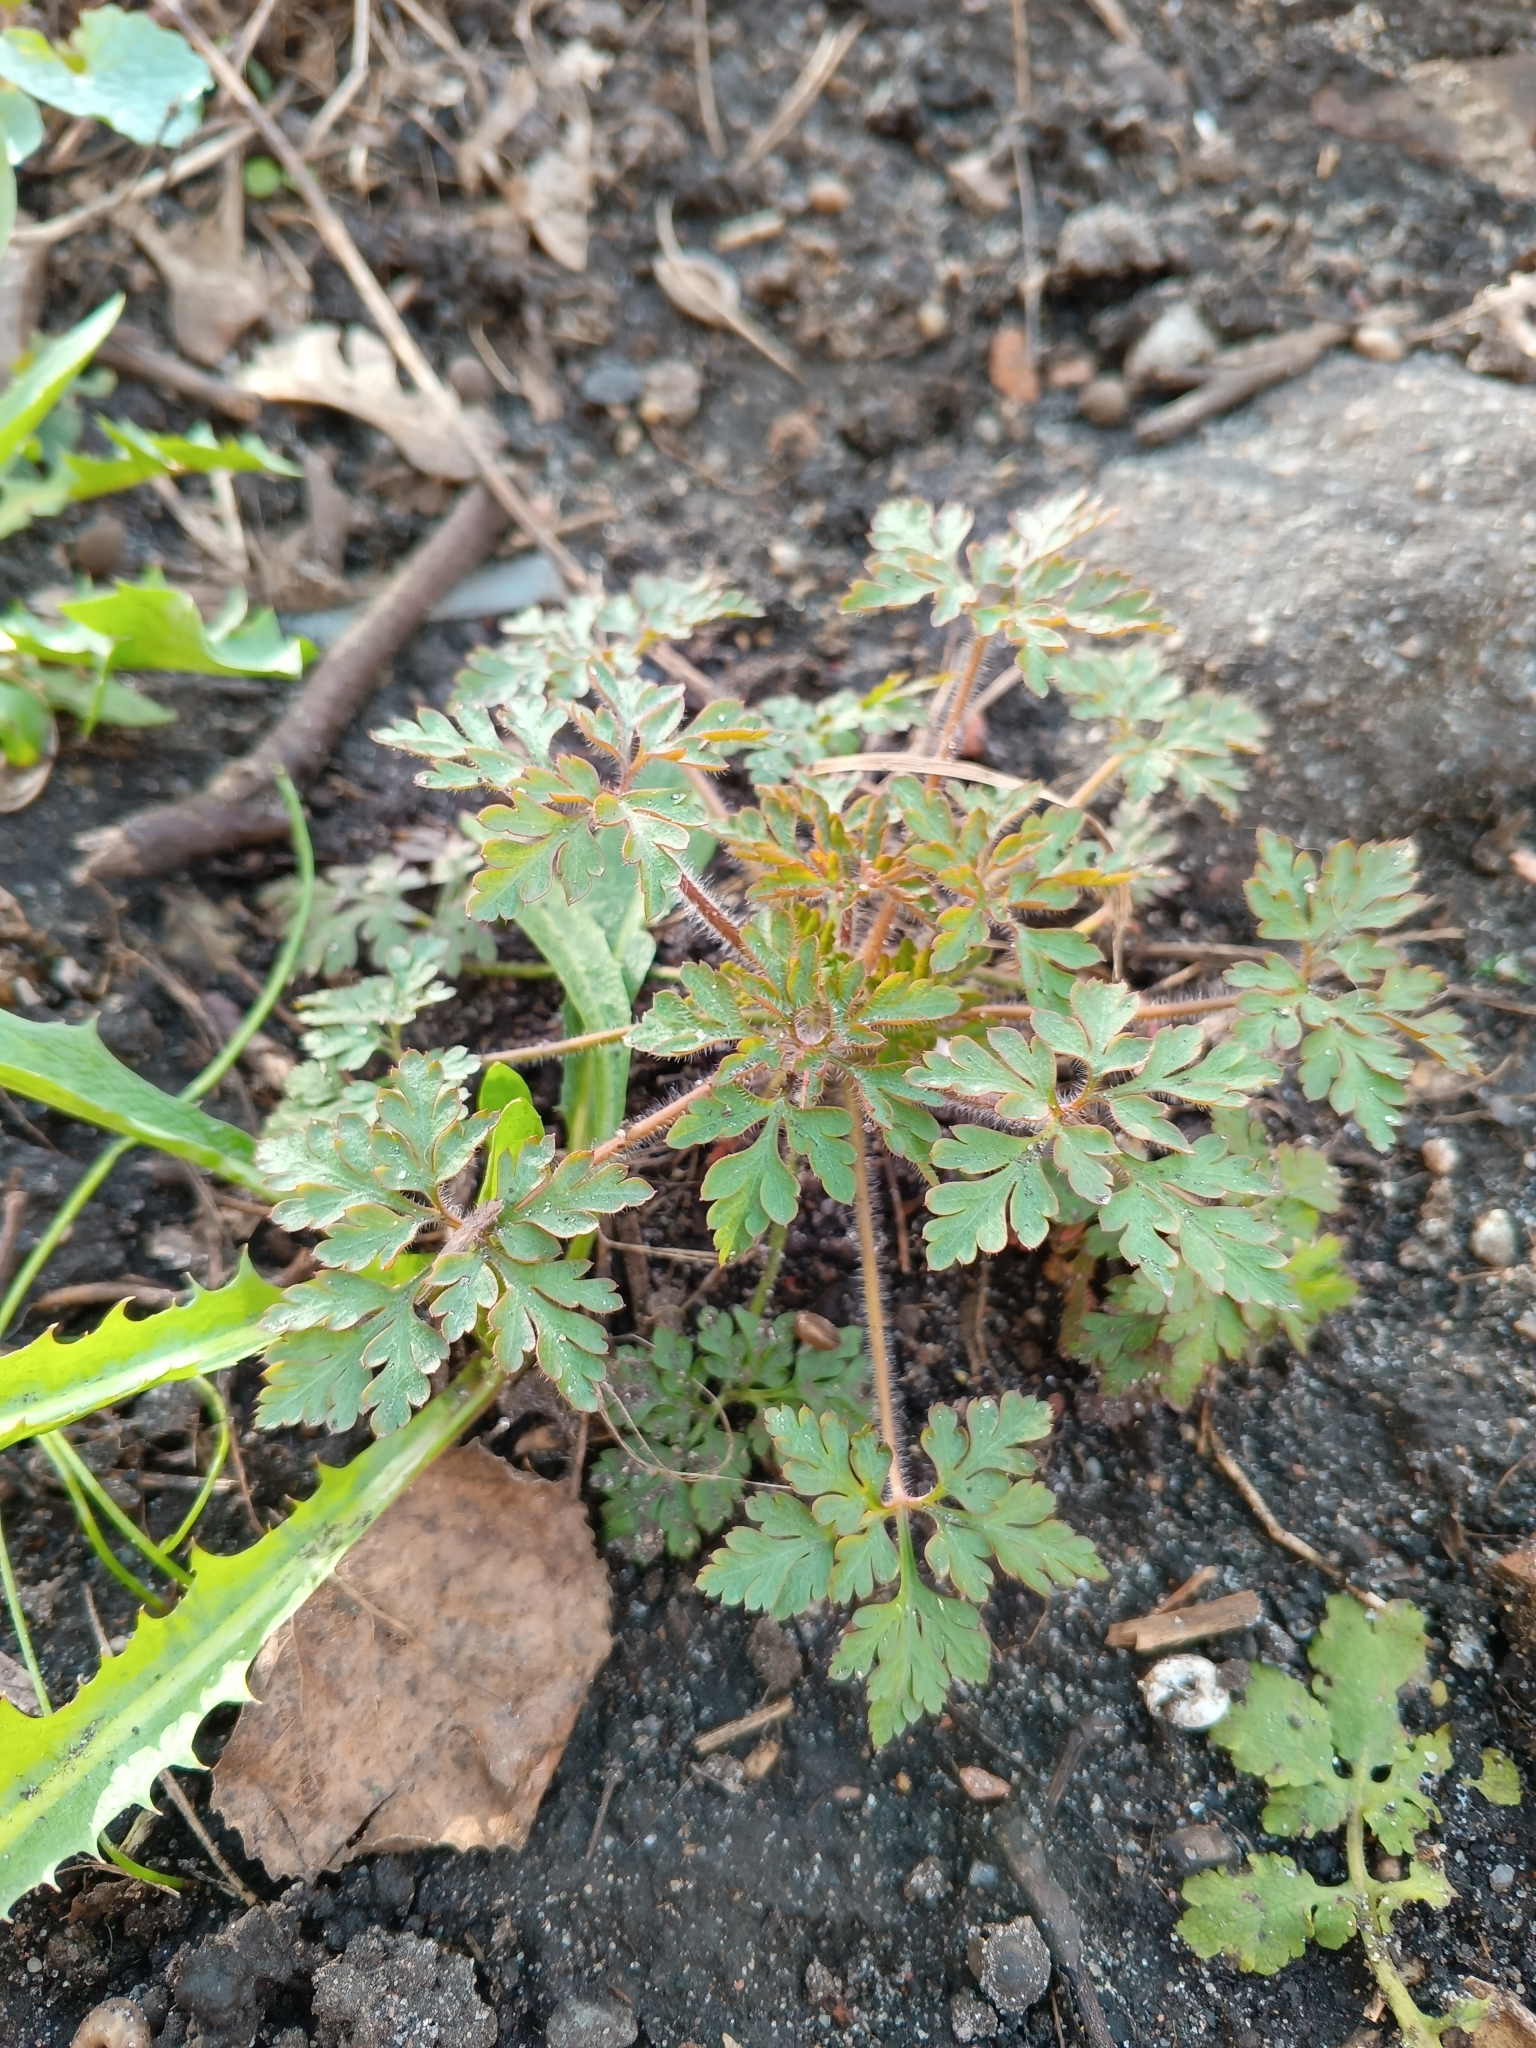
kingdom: Plantae
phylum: Tracheophyta
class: Magnoliopsida
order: Geraniales
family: Geraniaceae
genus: Geranium
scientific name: Geranium robertianum
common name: Herb-robert
